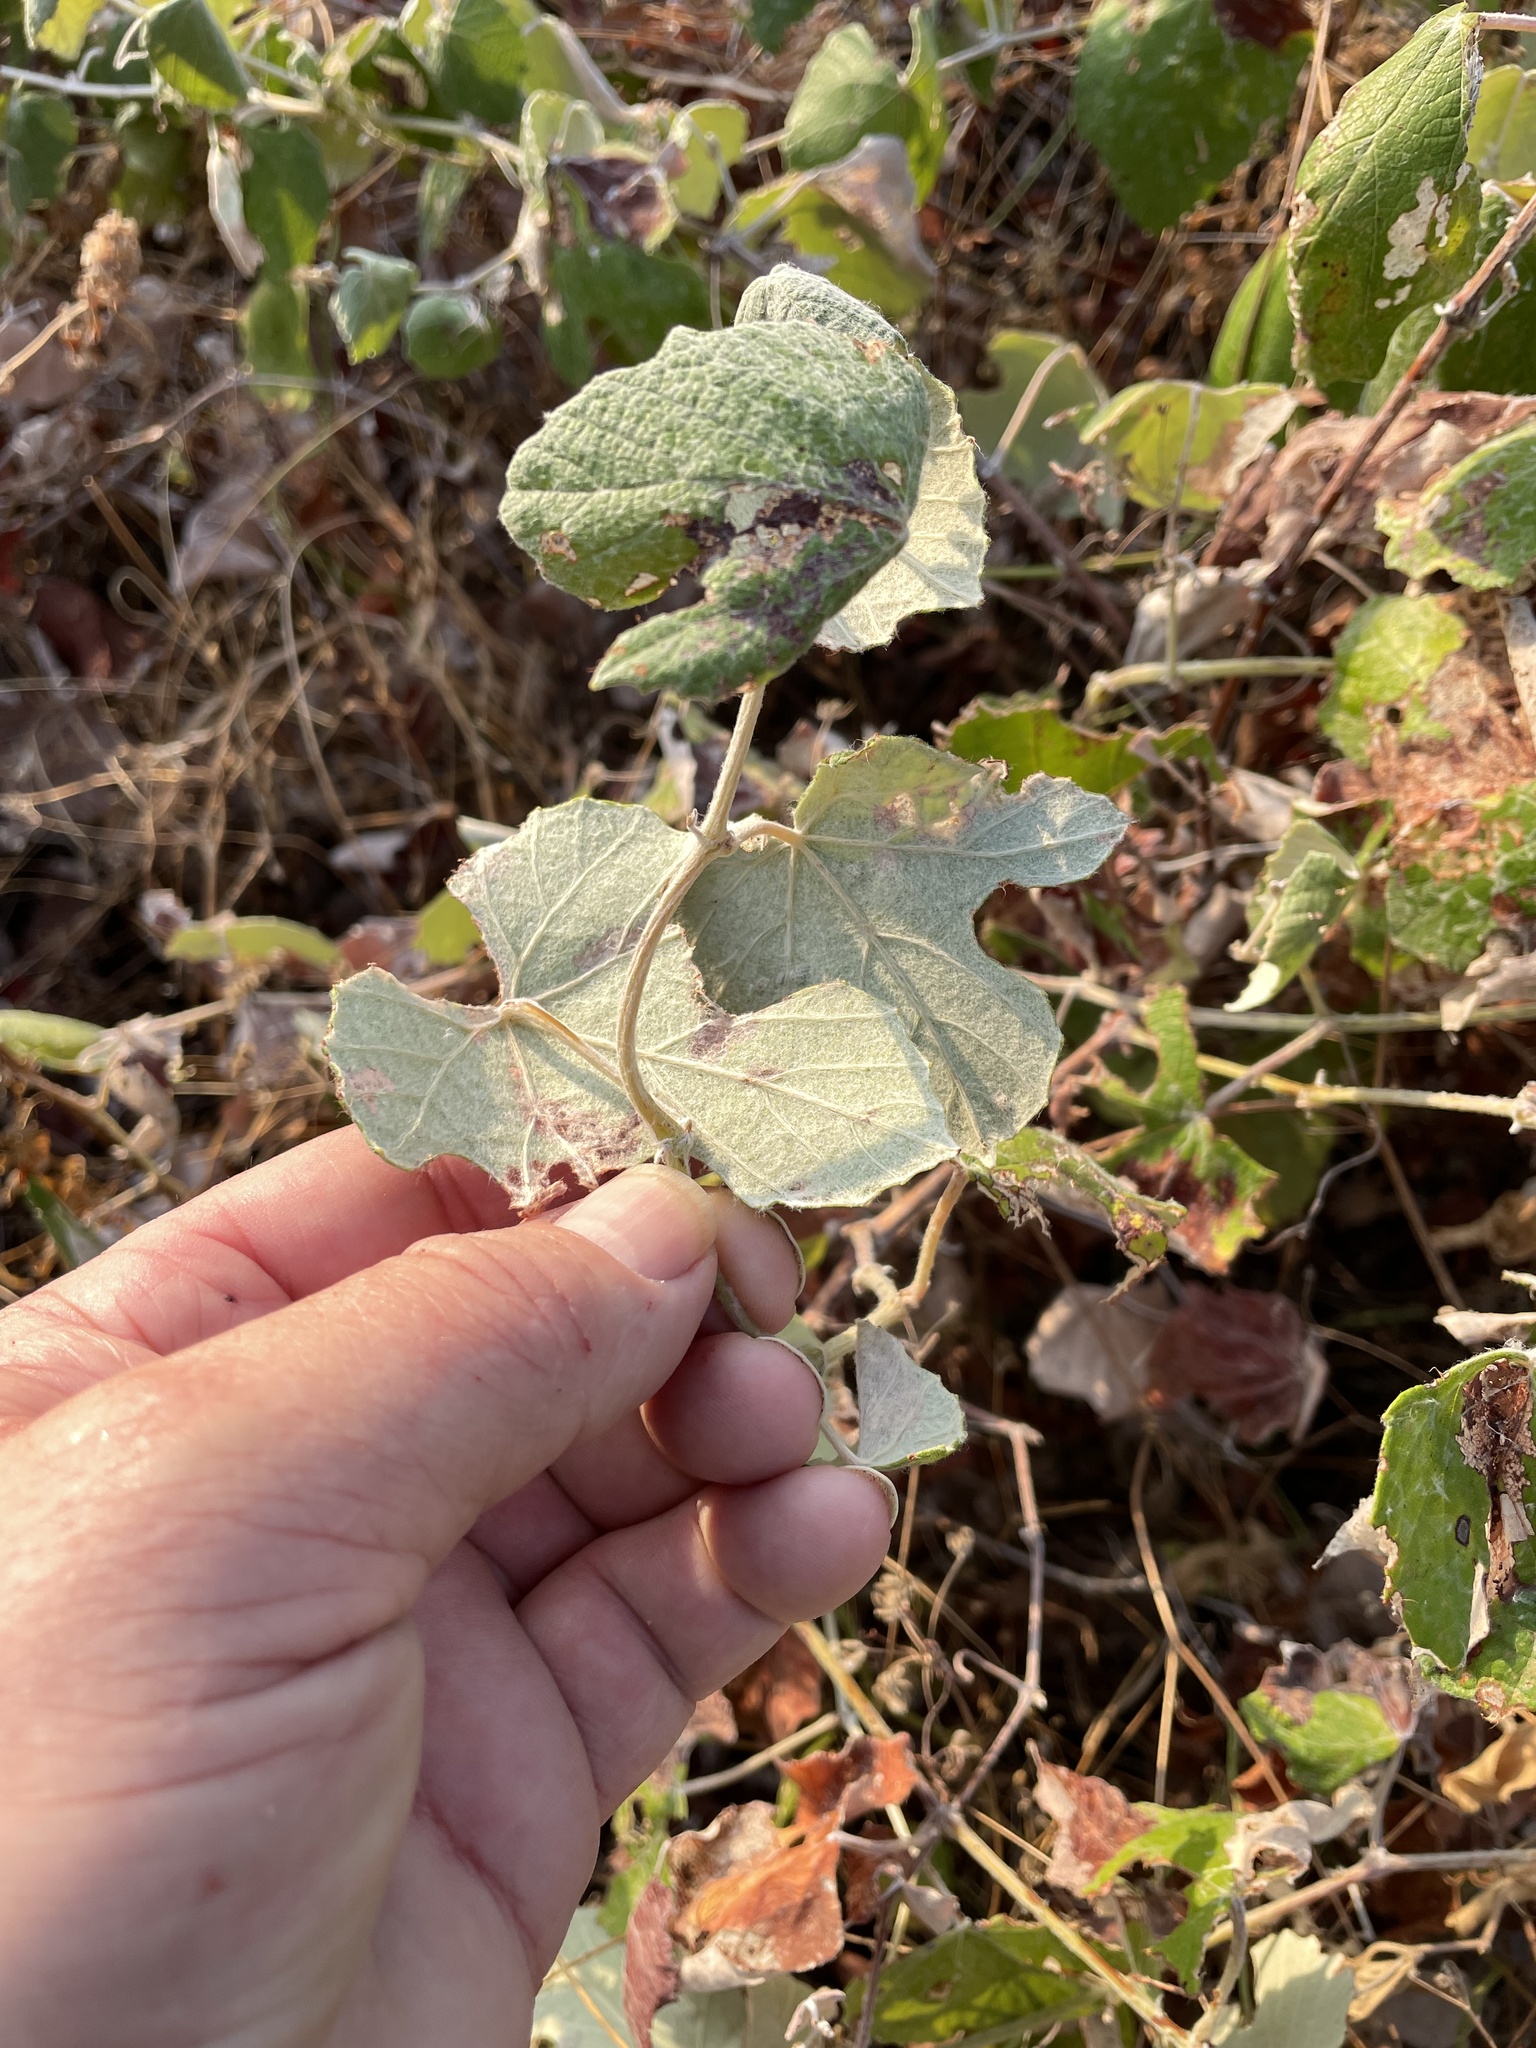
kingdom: Plantae
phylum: Tracheophyta
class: Magnoliopsida
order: Vitales
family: Vitaceae
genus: Vitis
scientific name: Vitis mustangensis
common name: Mustang grape
